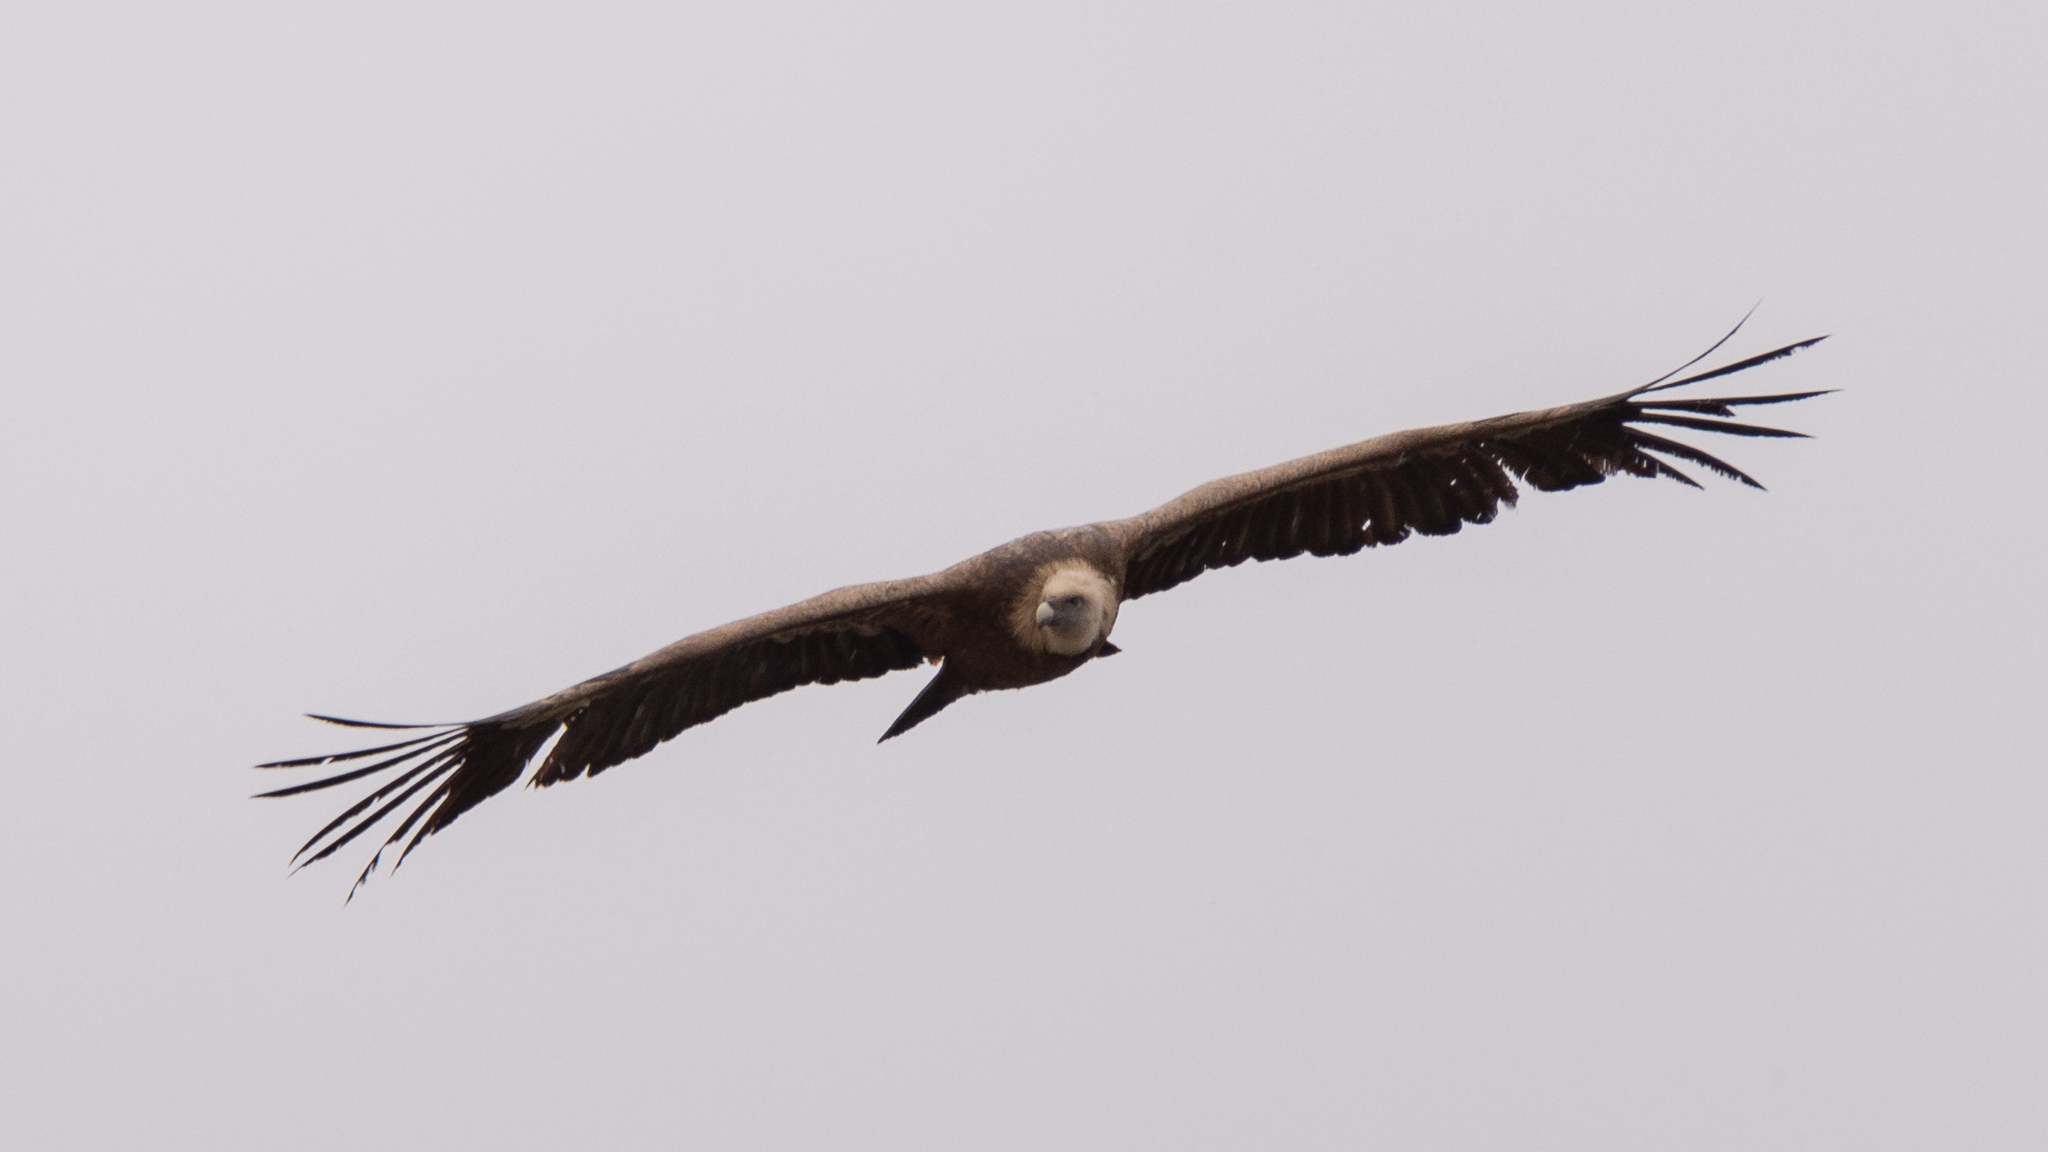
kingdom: Animalia
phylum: Chordata
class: Aves
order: Accipitriformes
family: Accipitridae
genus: Gyps
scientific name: Gyps fulvus
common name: Griffon vulture
